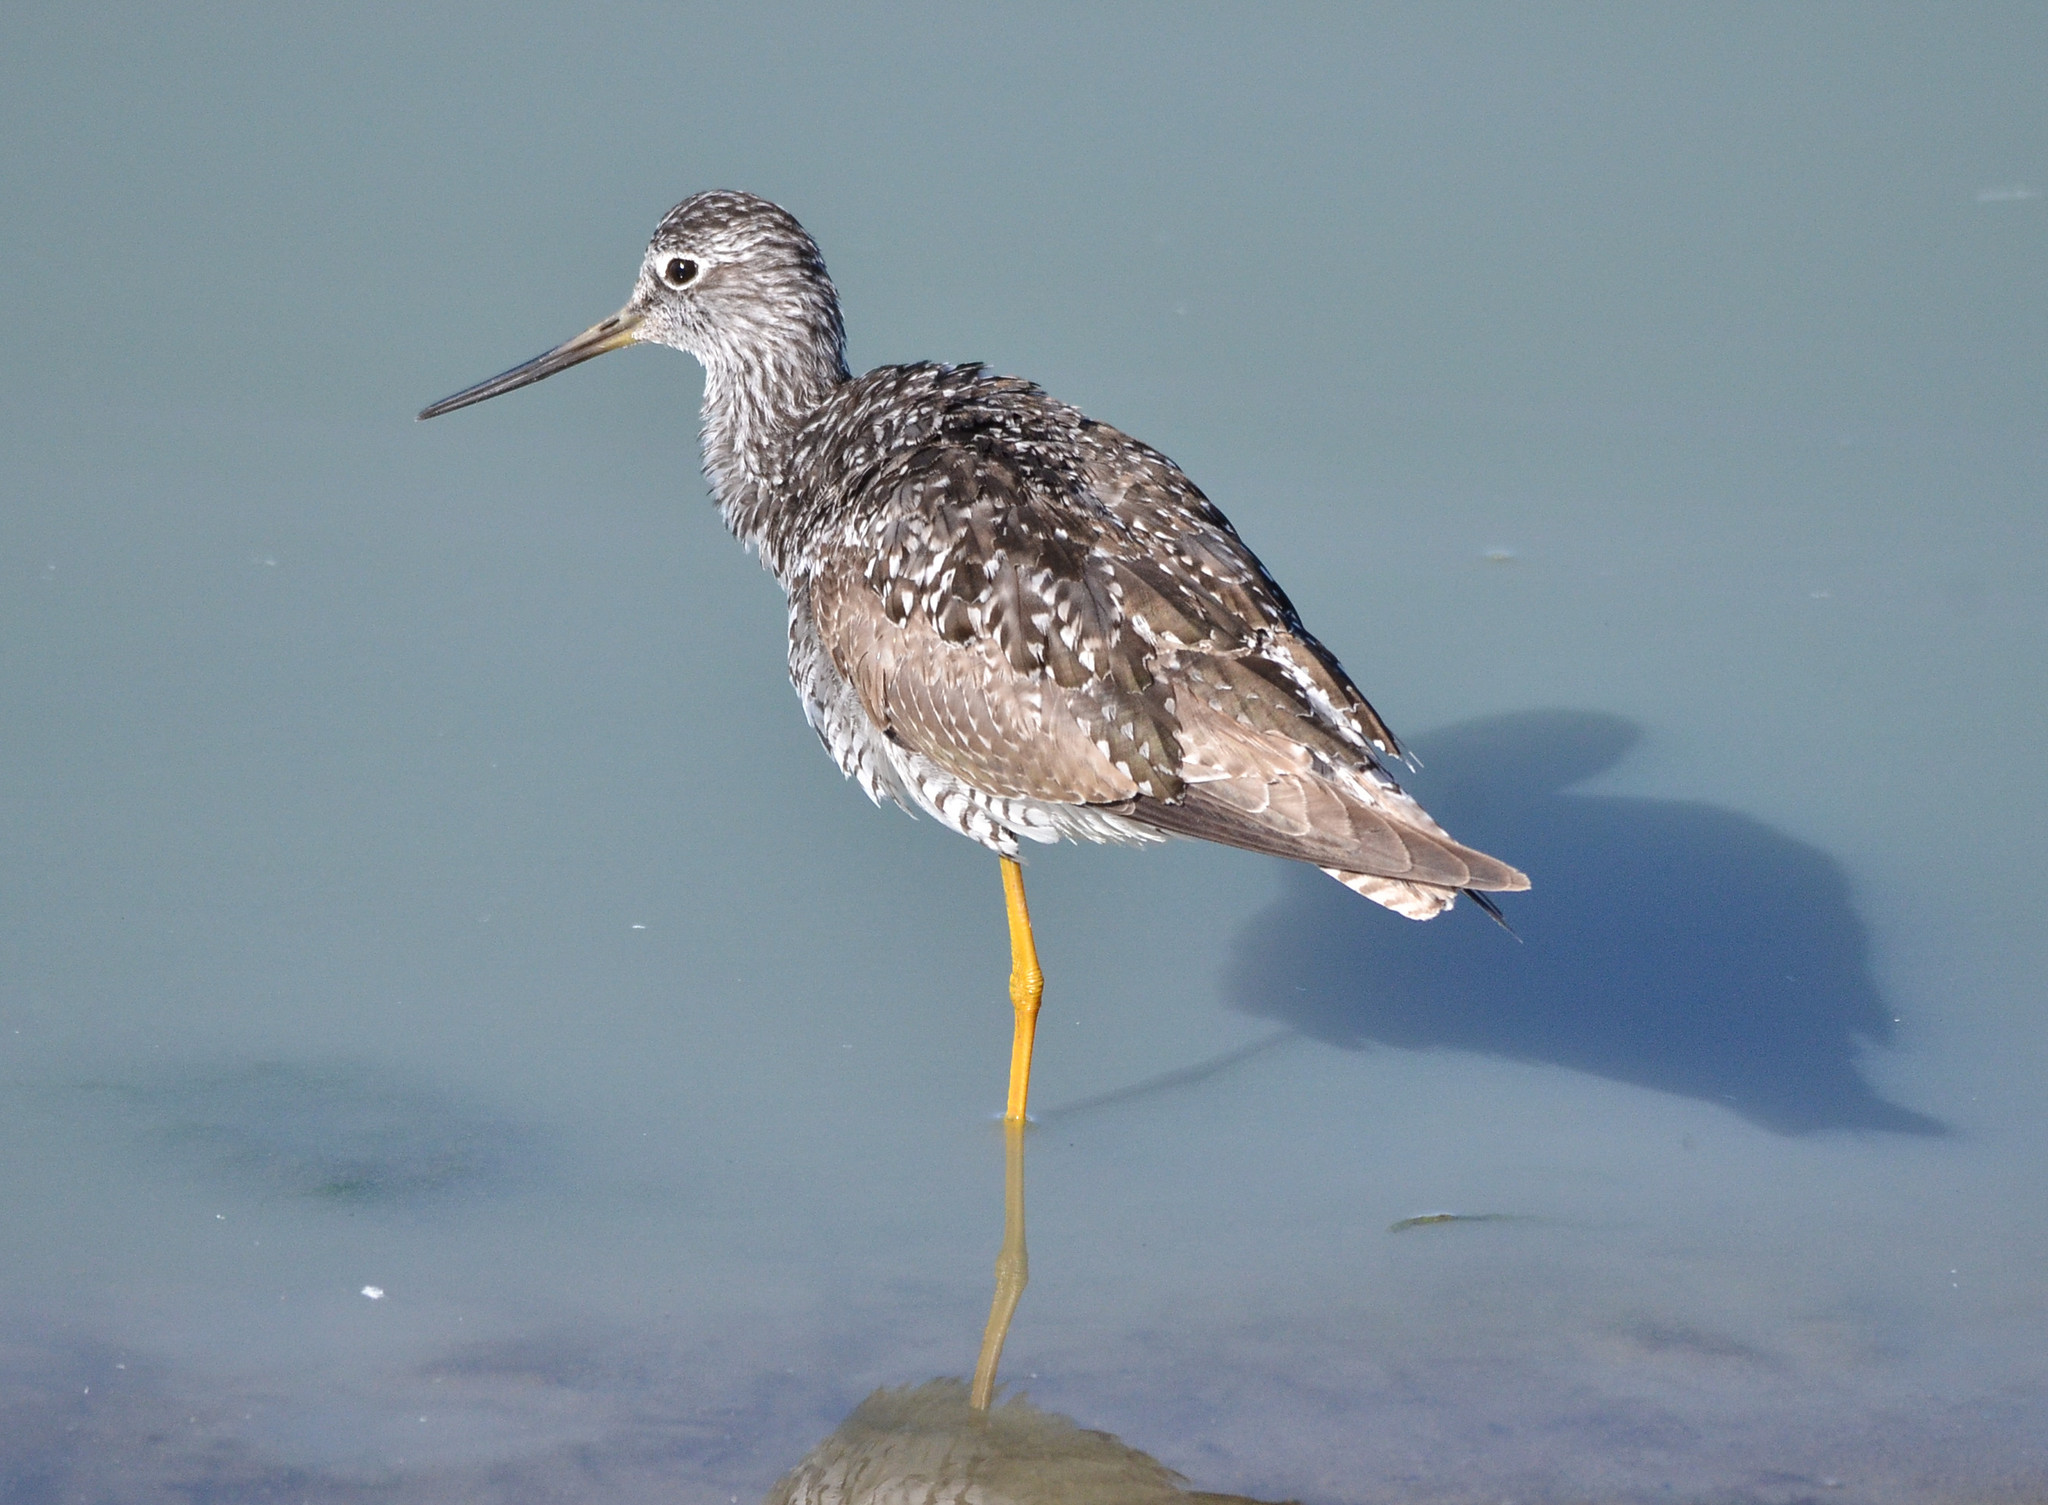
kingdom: Animalia
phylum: Chordata
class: Aves
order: Charadriiformes
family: Scolopacidae
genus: Tringa
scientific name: Tringa melanoleuca
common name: Greater yellowlegs
